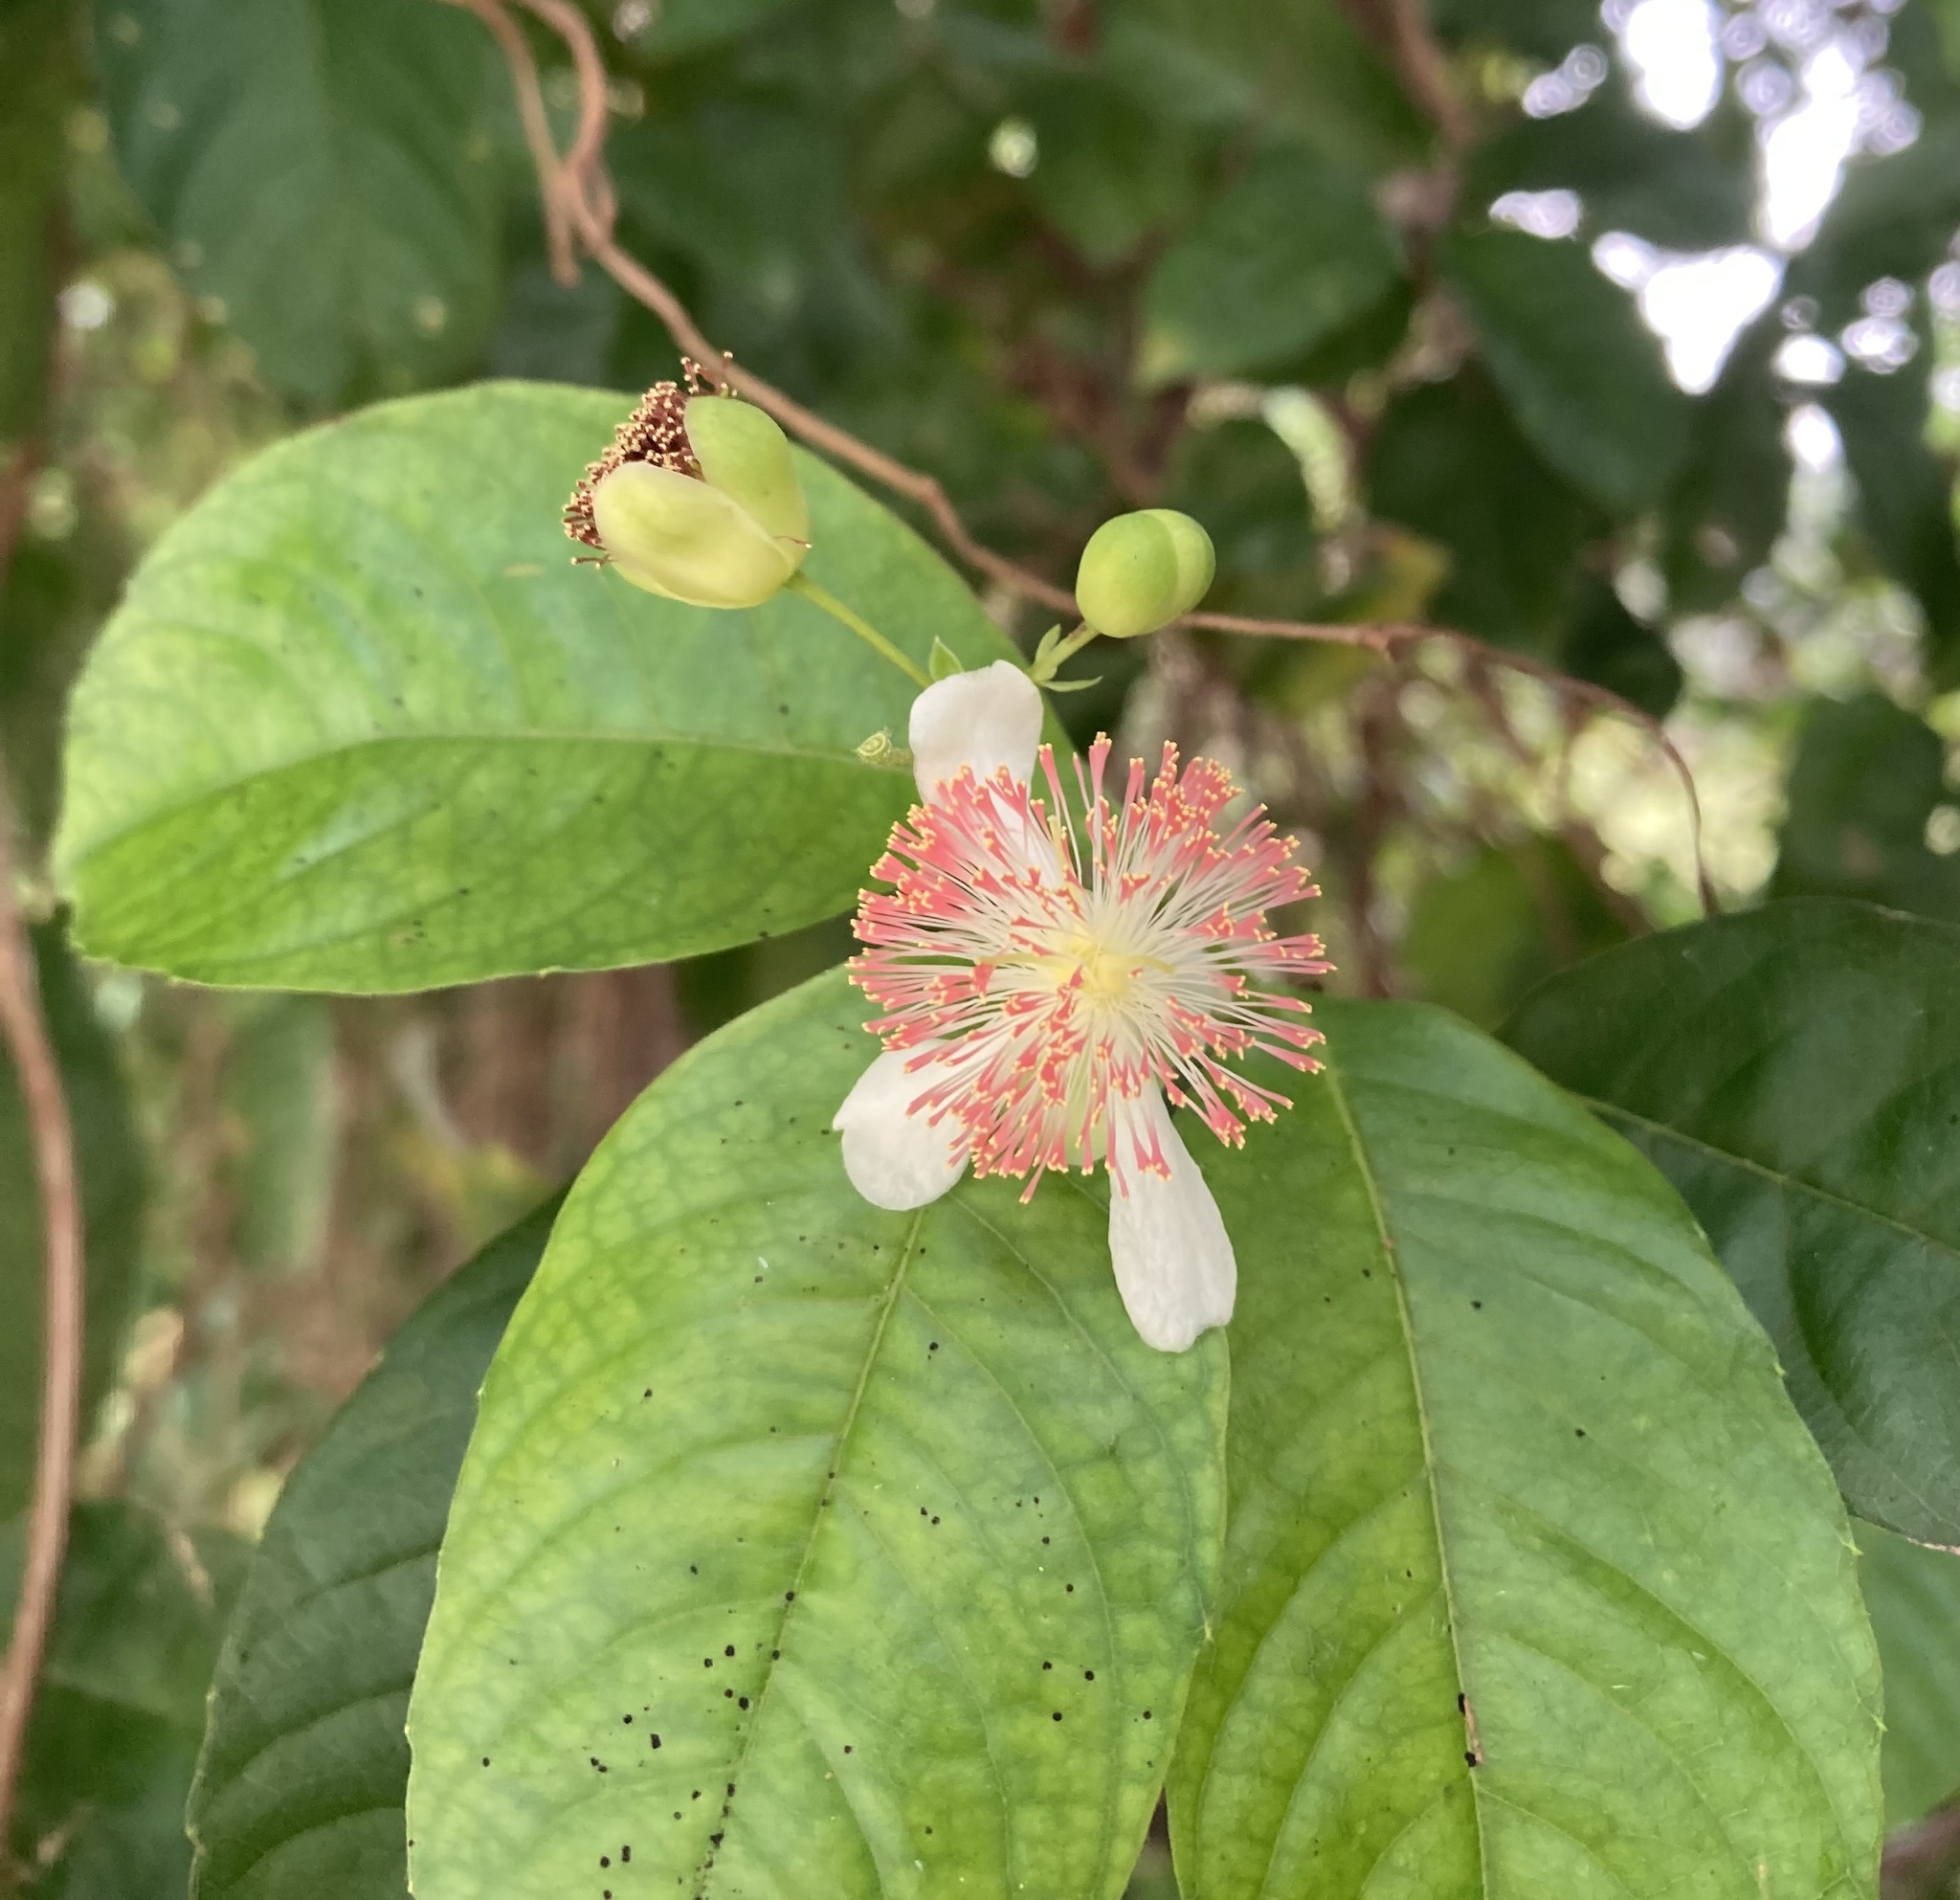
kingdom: Plantae
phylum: Tracheophyta
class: Magnoliopsida
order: Dilleniales
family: Dilleniaceae
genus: Tetracera
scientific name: Tetracera indica
